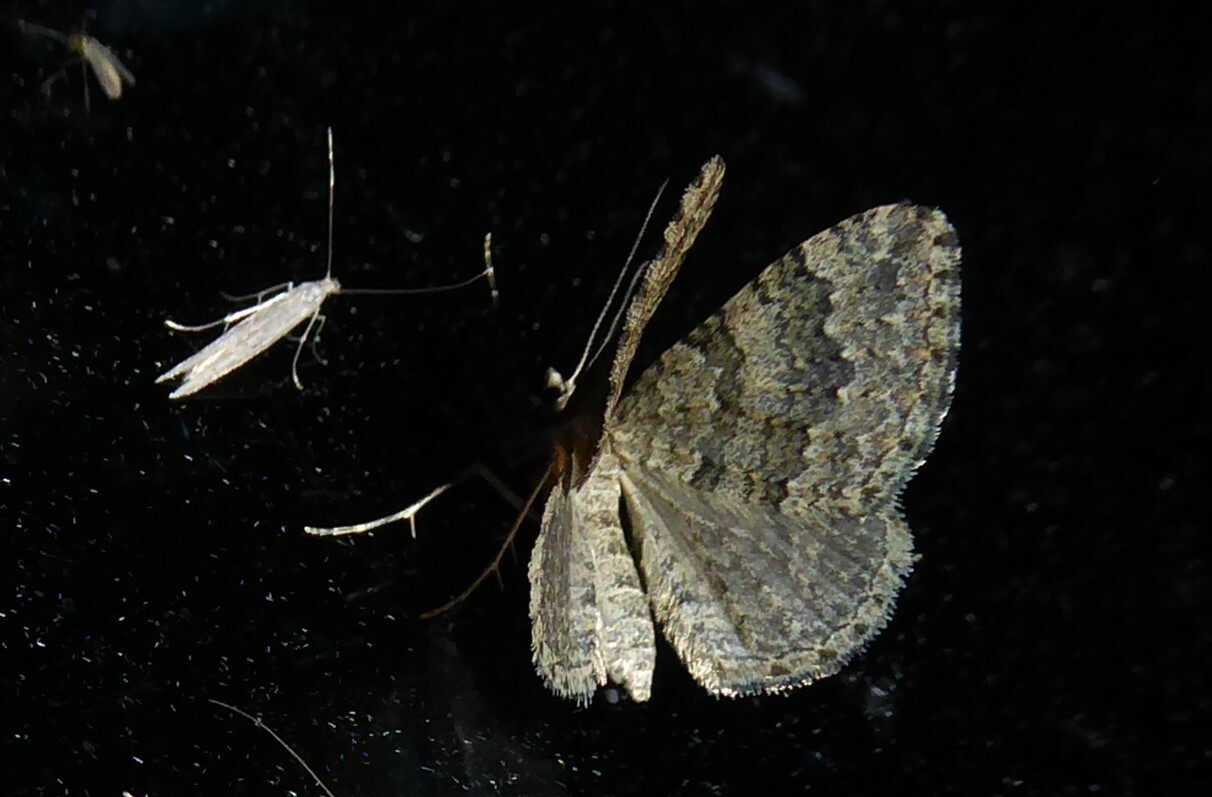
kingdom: Animalia
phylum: Arthropoda
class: Insecta
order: Lepidoptera
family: Geometridae
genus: Helastia
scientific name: Helastia corcularia
